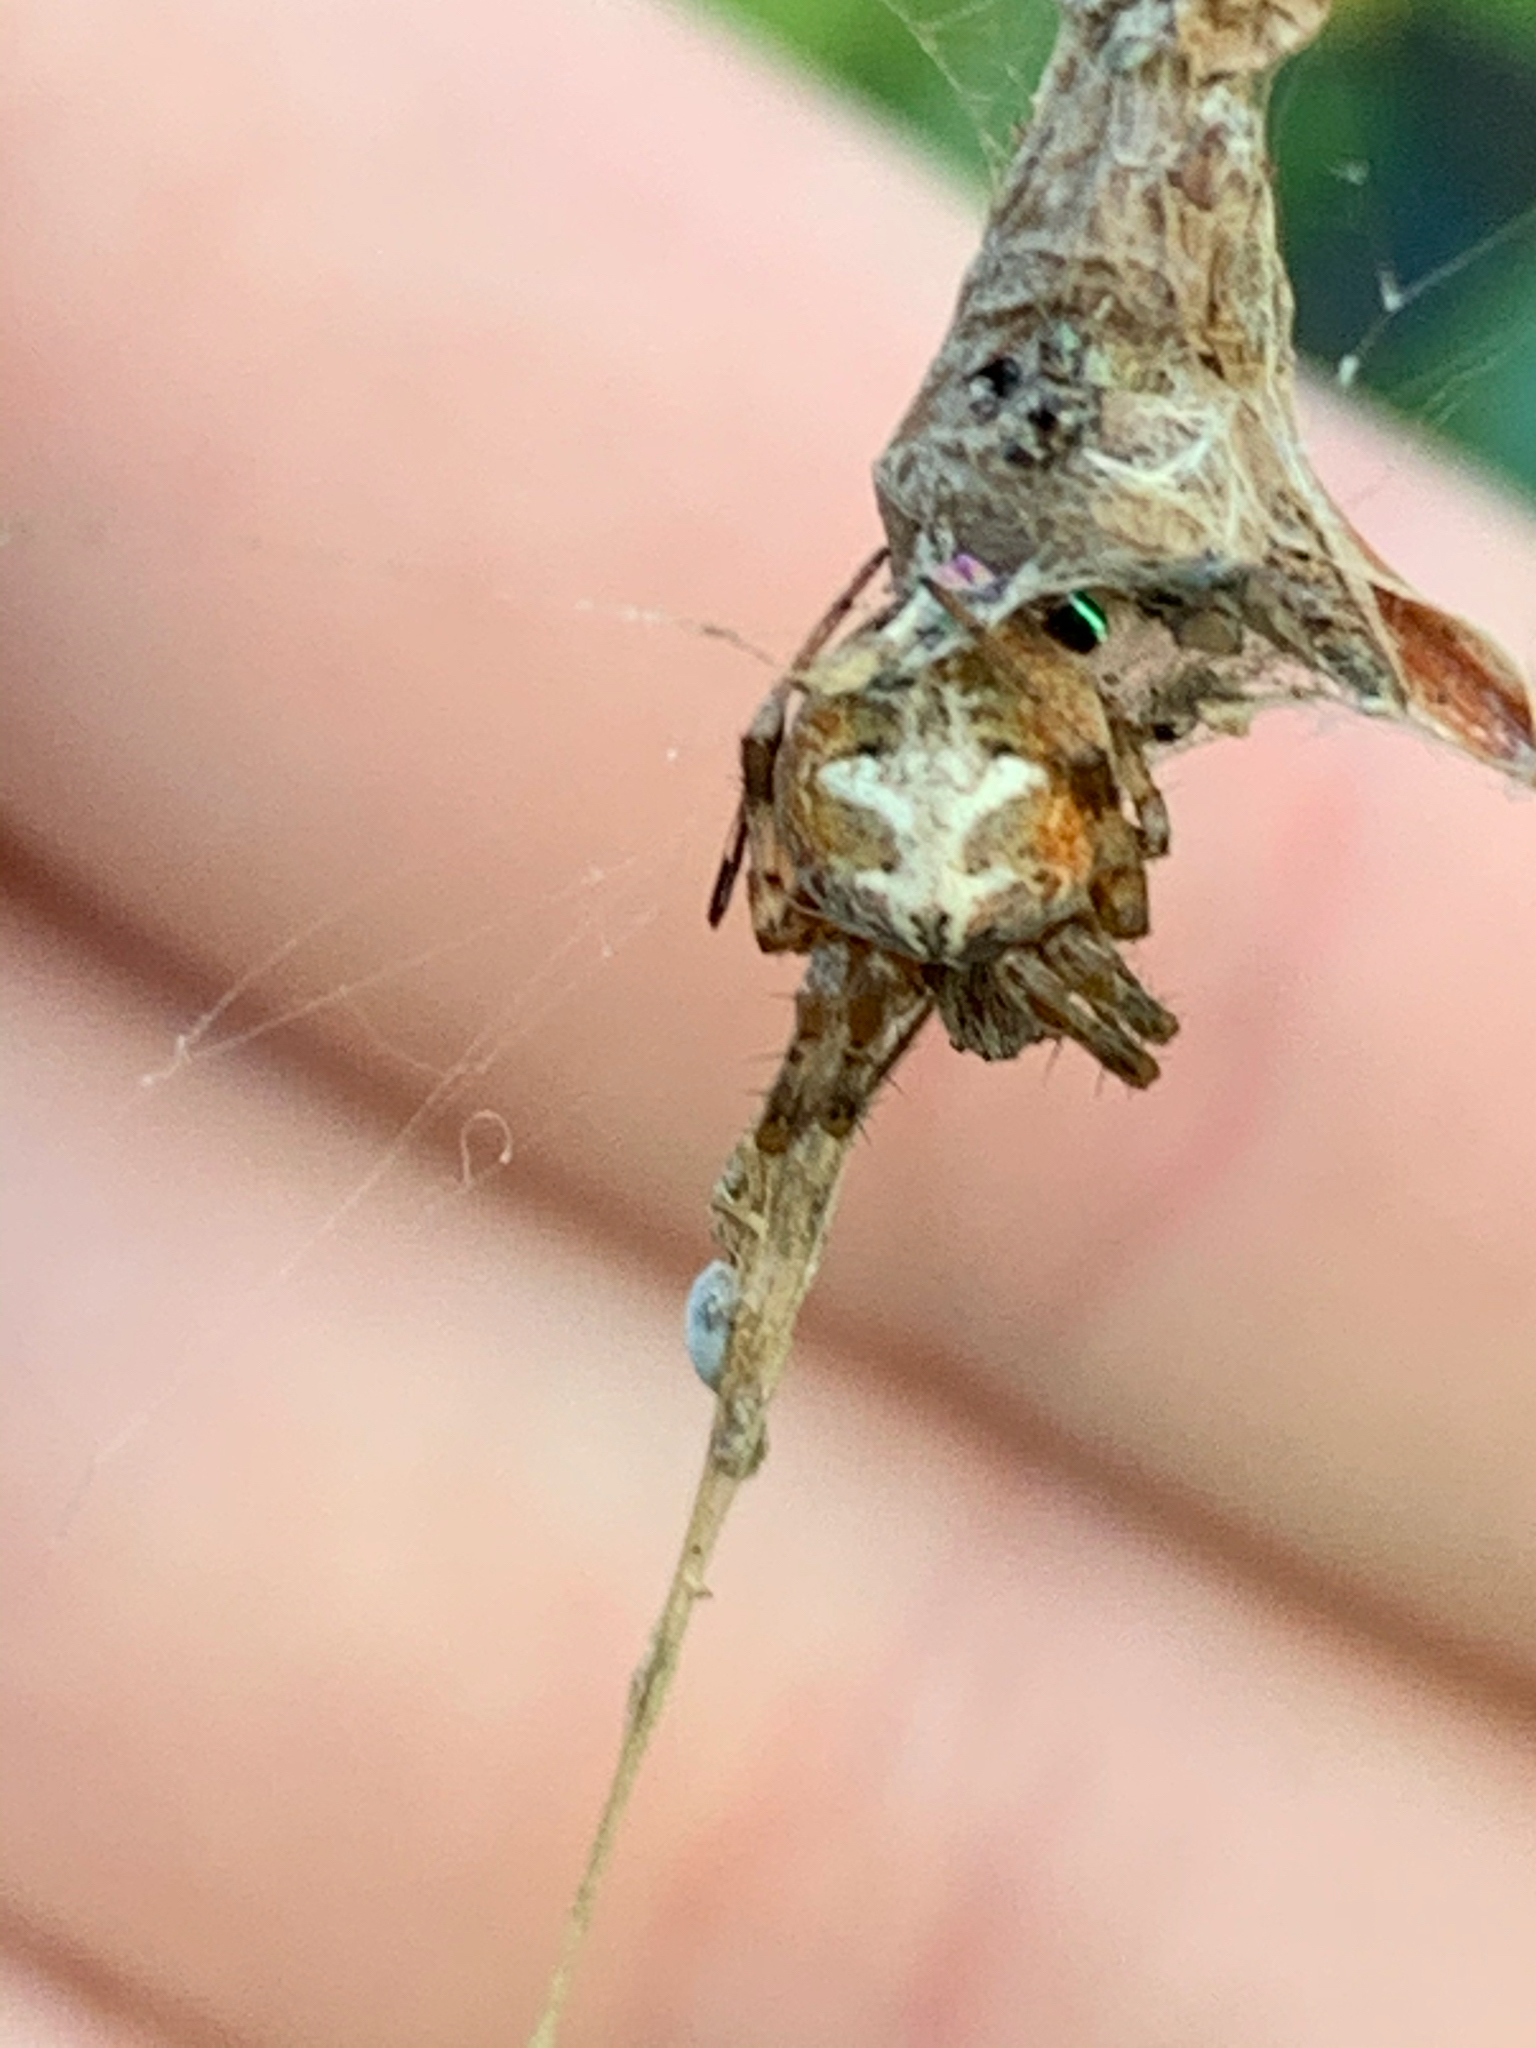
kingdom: Animalia
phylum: Arthropoda
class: Arachnida
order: Araneae
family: Araneidae
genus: Metepeira
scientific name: Metepeira labyrinthea
